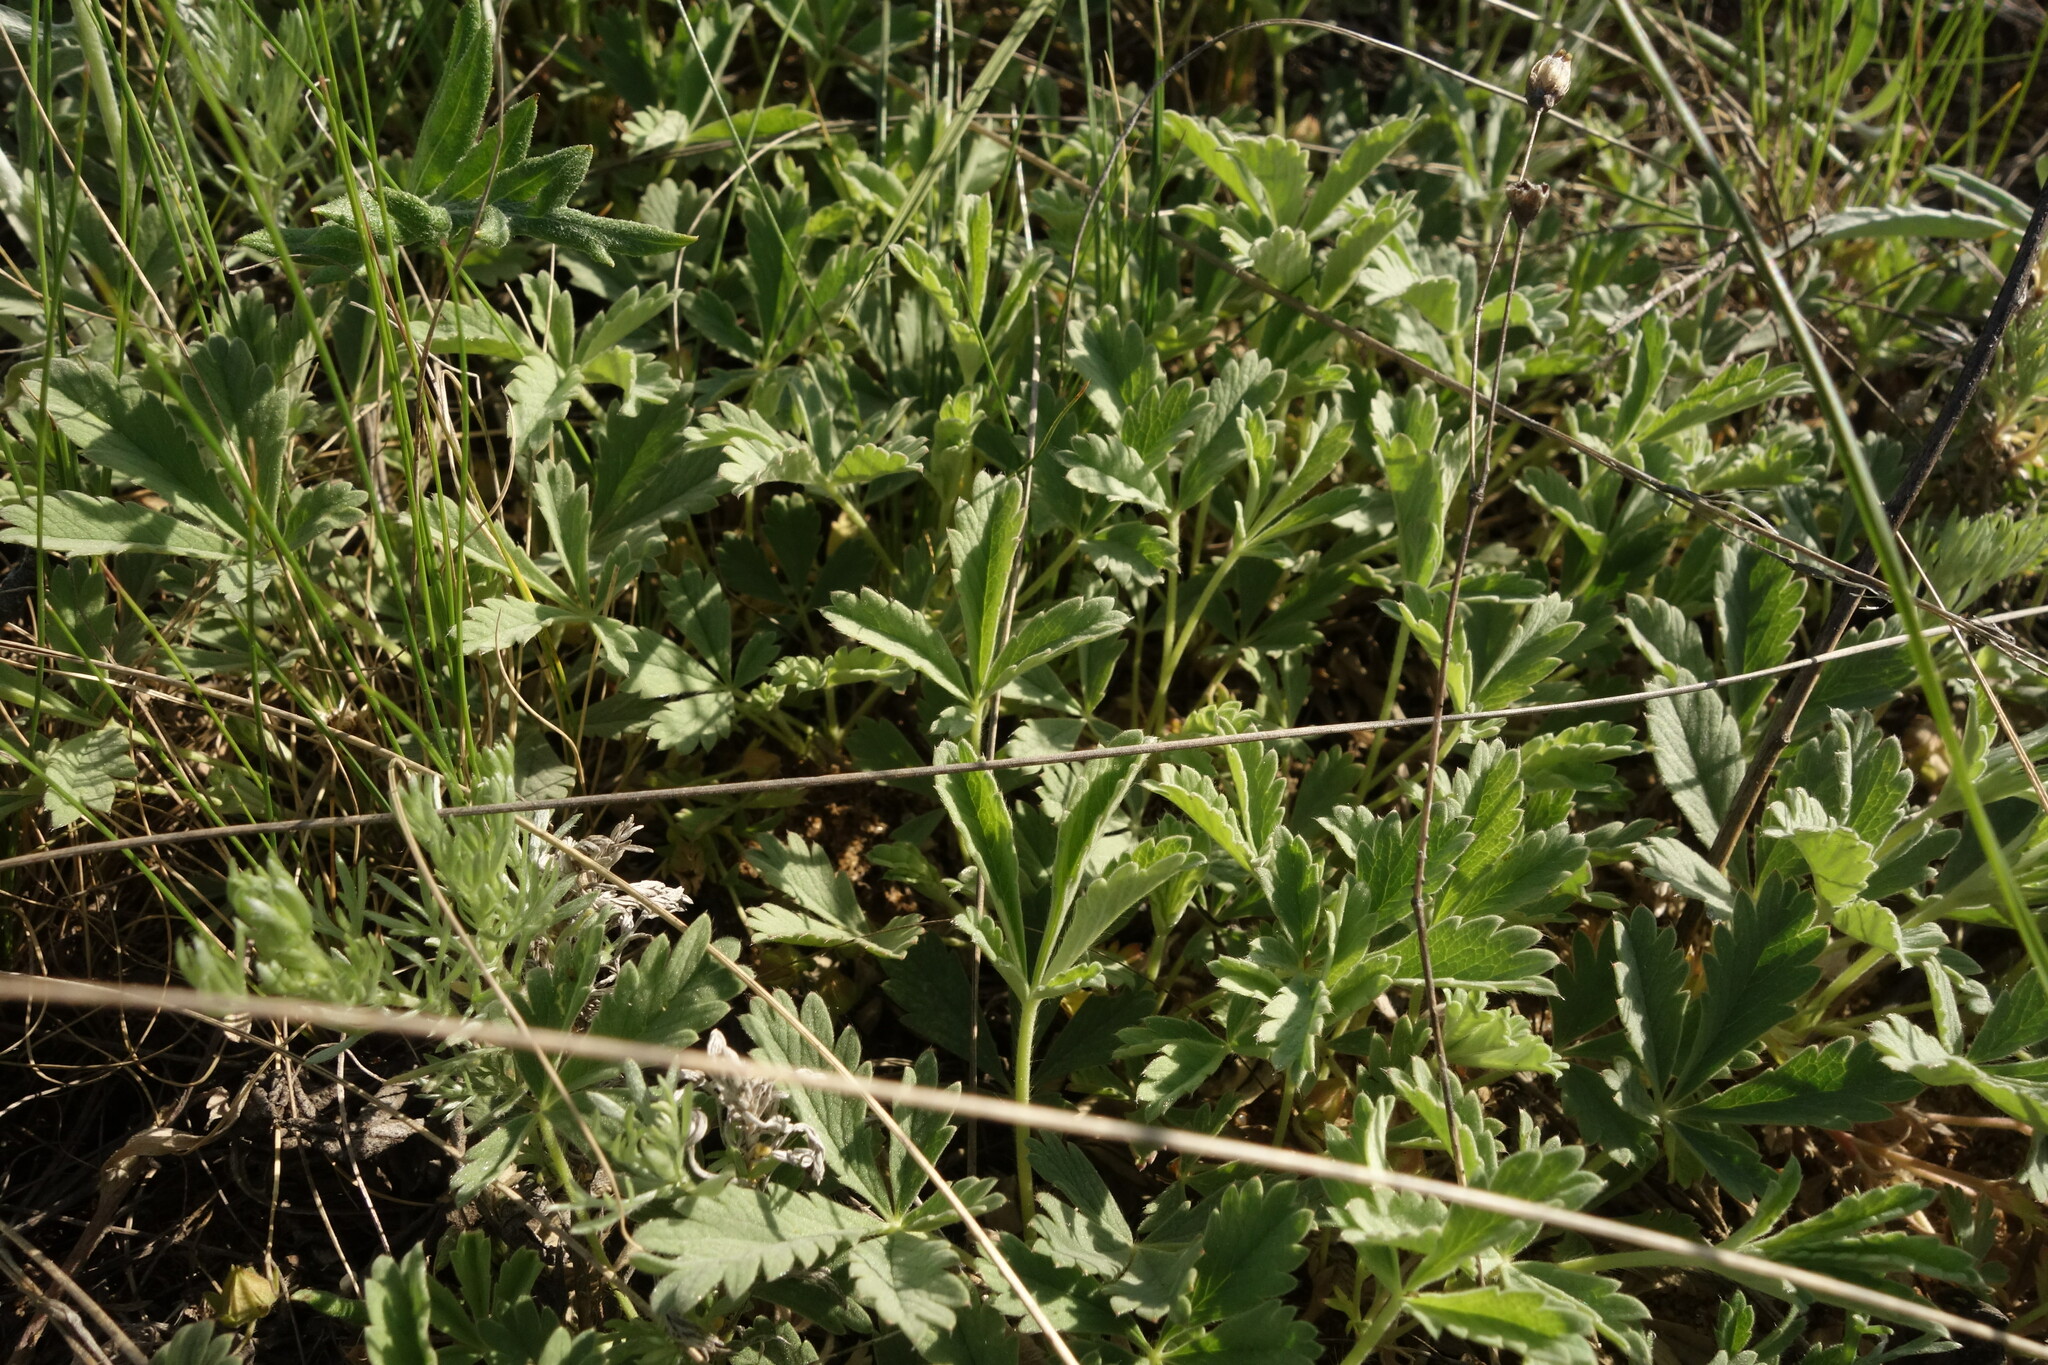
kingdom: Plantae
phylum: Tracheophyta
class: Magnoliopsida
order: Rosales
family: Rosaceae
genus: Potentilla
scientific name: Potentilla incana
